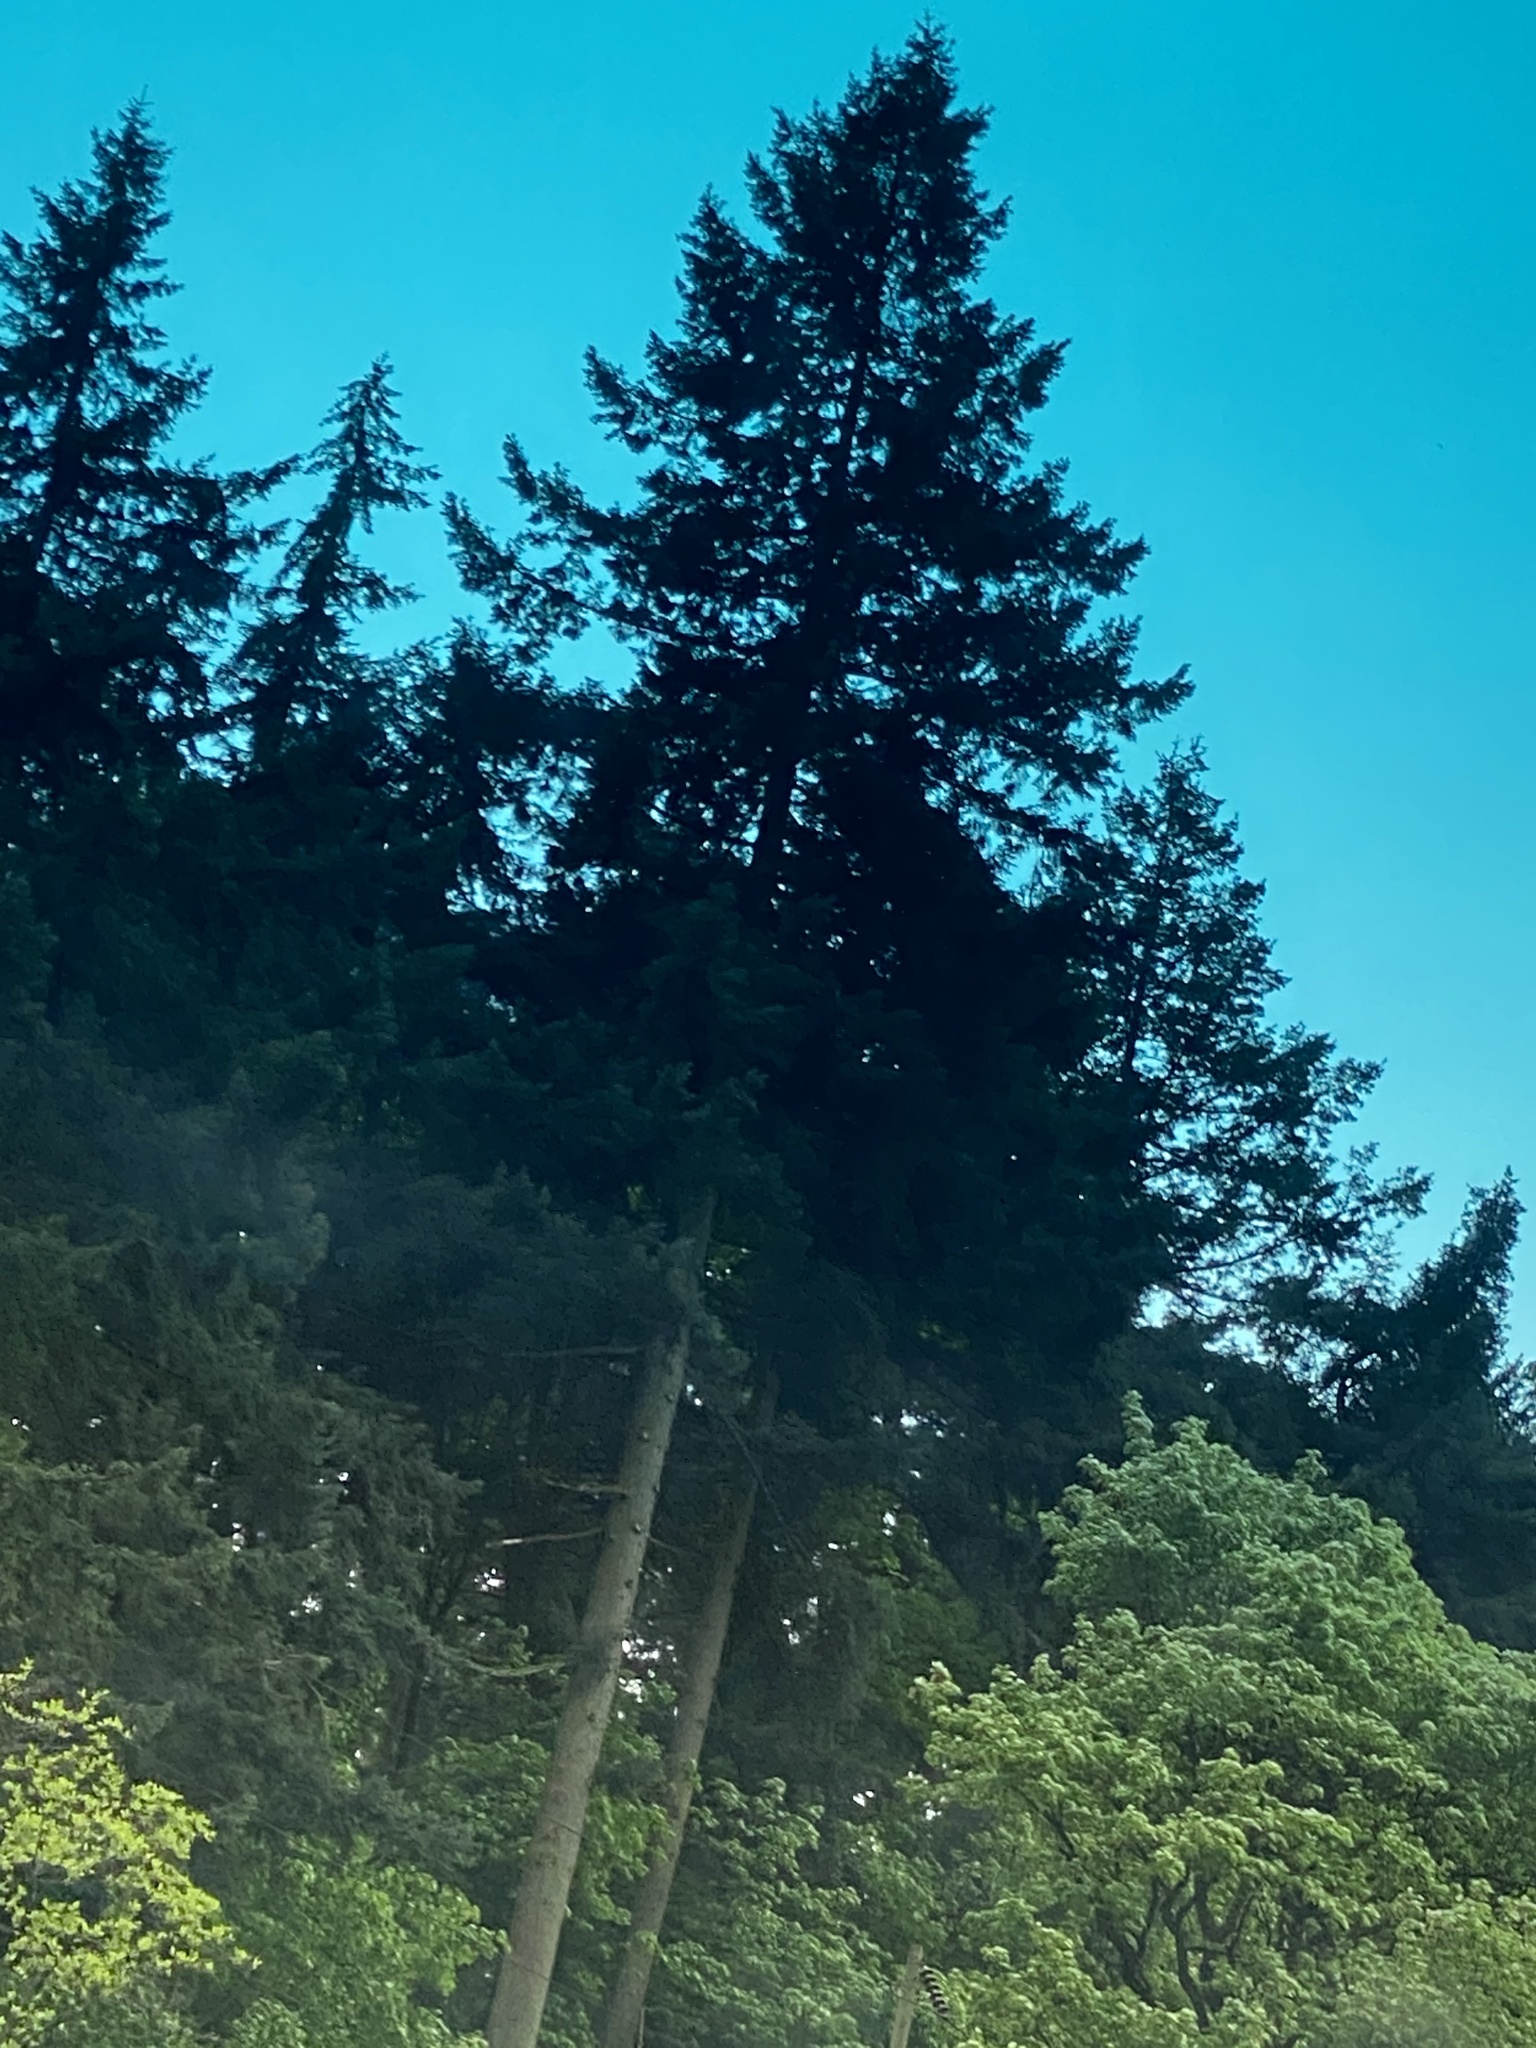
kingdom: Plantae
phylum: Tracheophyta
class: Pinopsida
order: Pinales
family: Pinaceae
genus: Pseudotsuga
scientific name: Pseudotsuga menziesii
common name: Douglas fir
